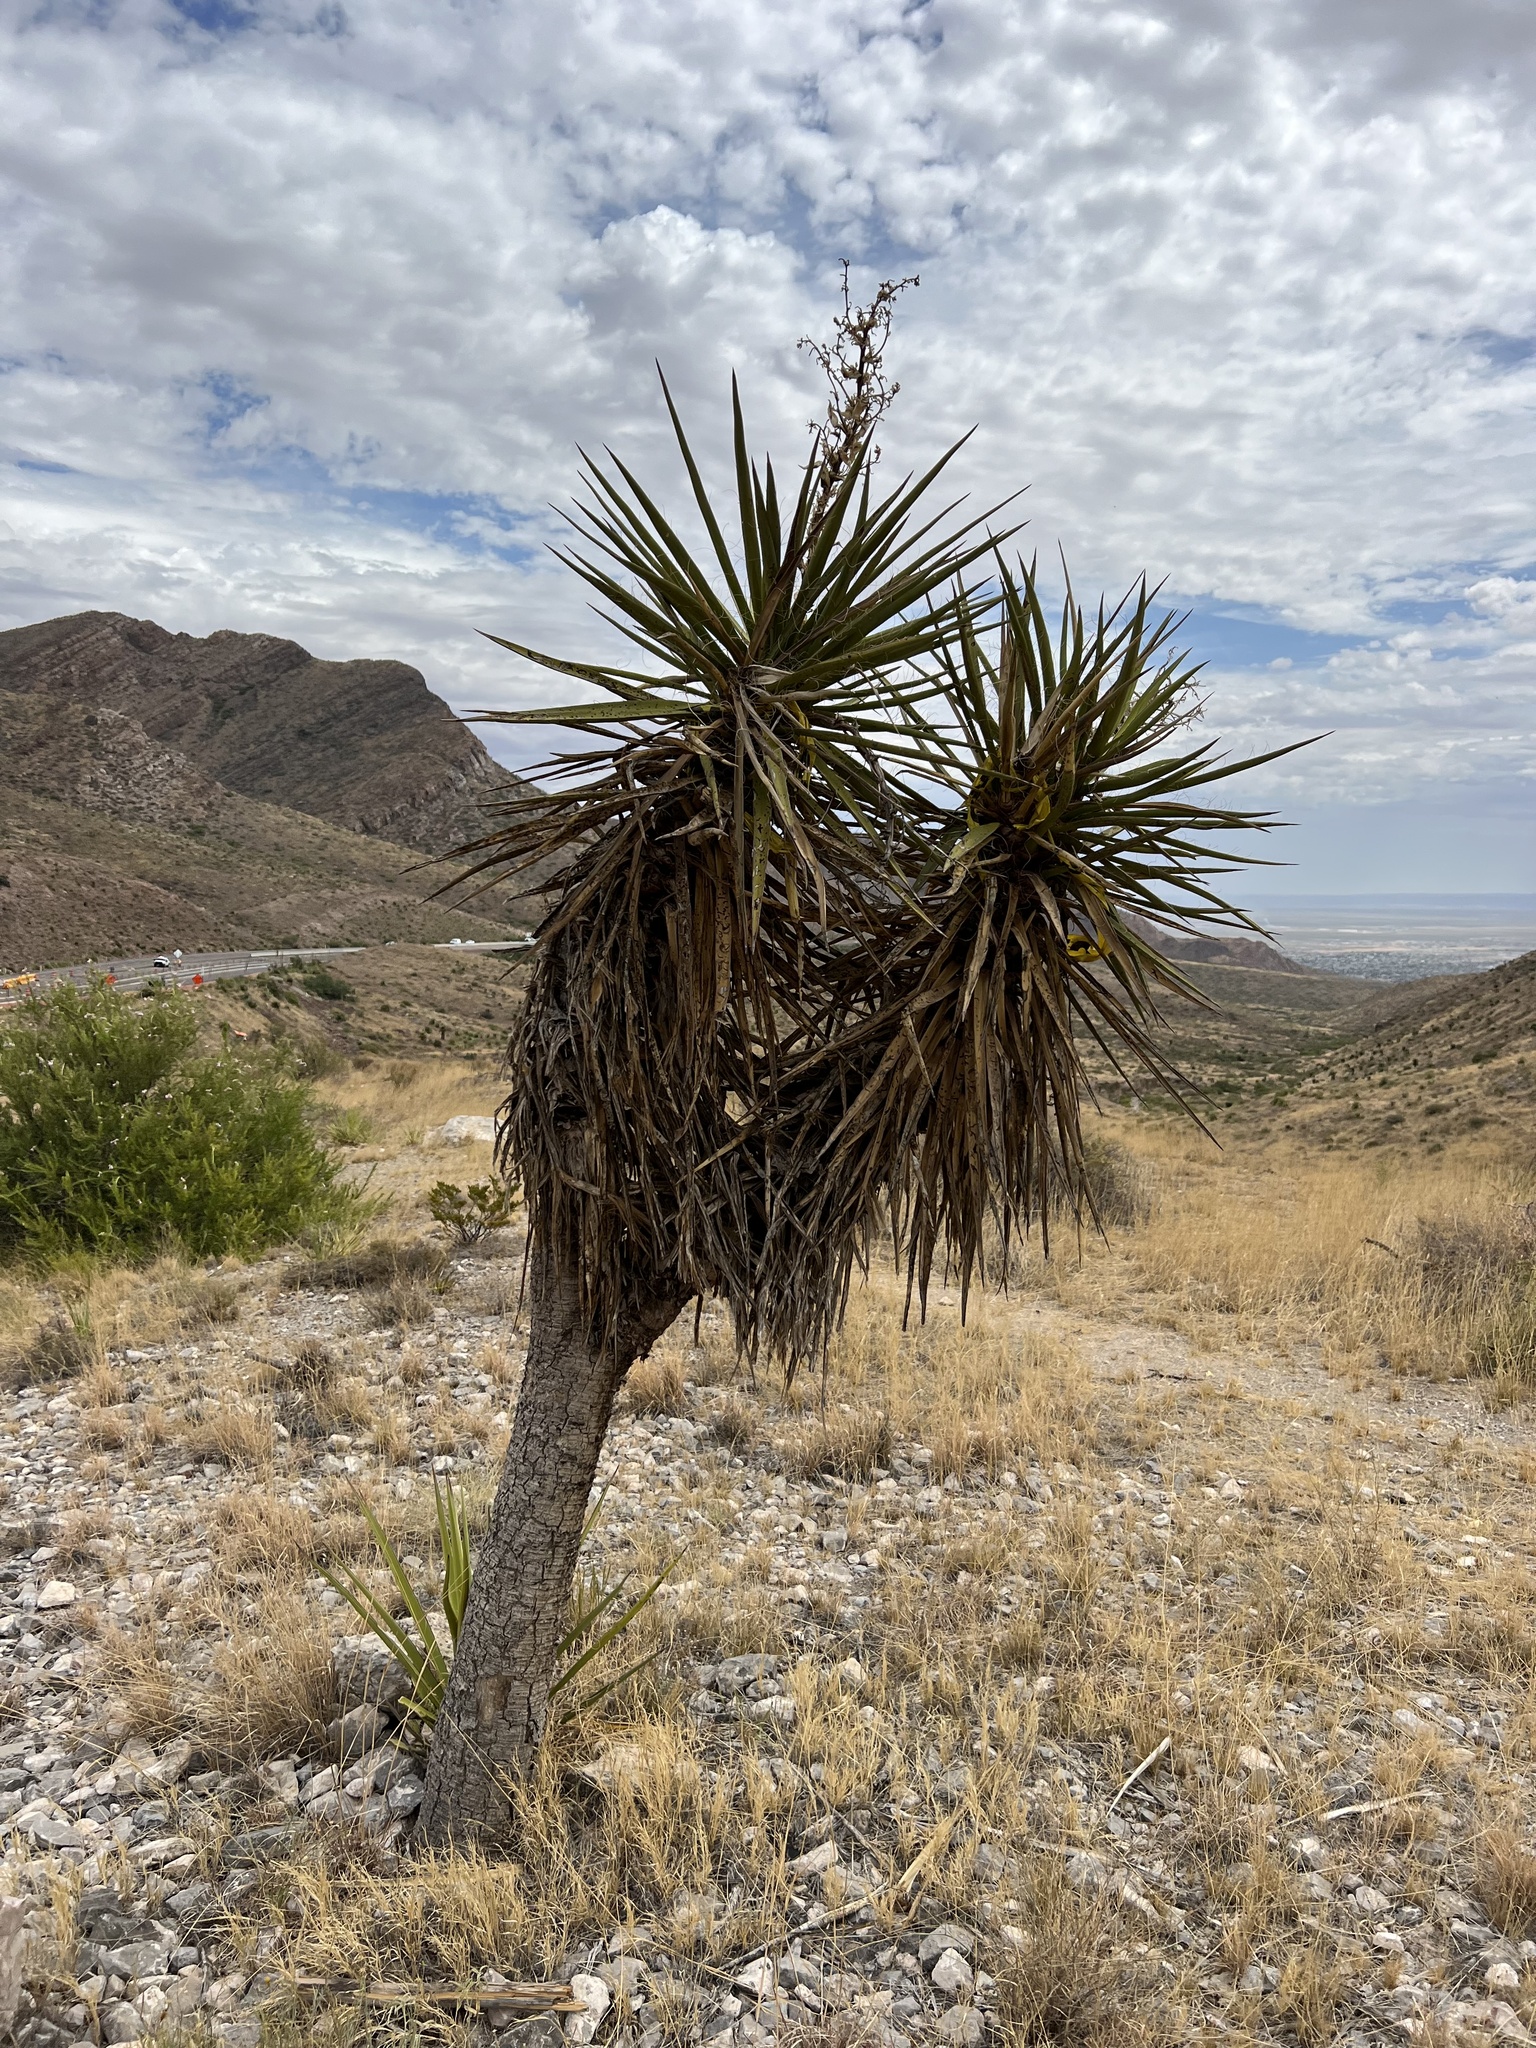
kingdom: Plantae
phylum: Tracheophyta
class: Liliopsida
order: Asparagales
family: Asparagaceae
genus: Yucca
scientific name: Yucca treculiana
